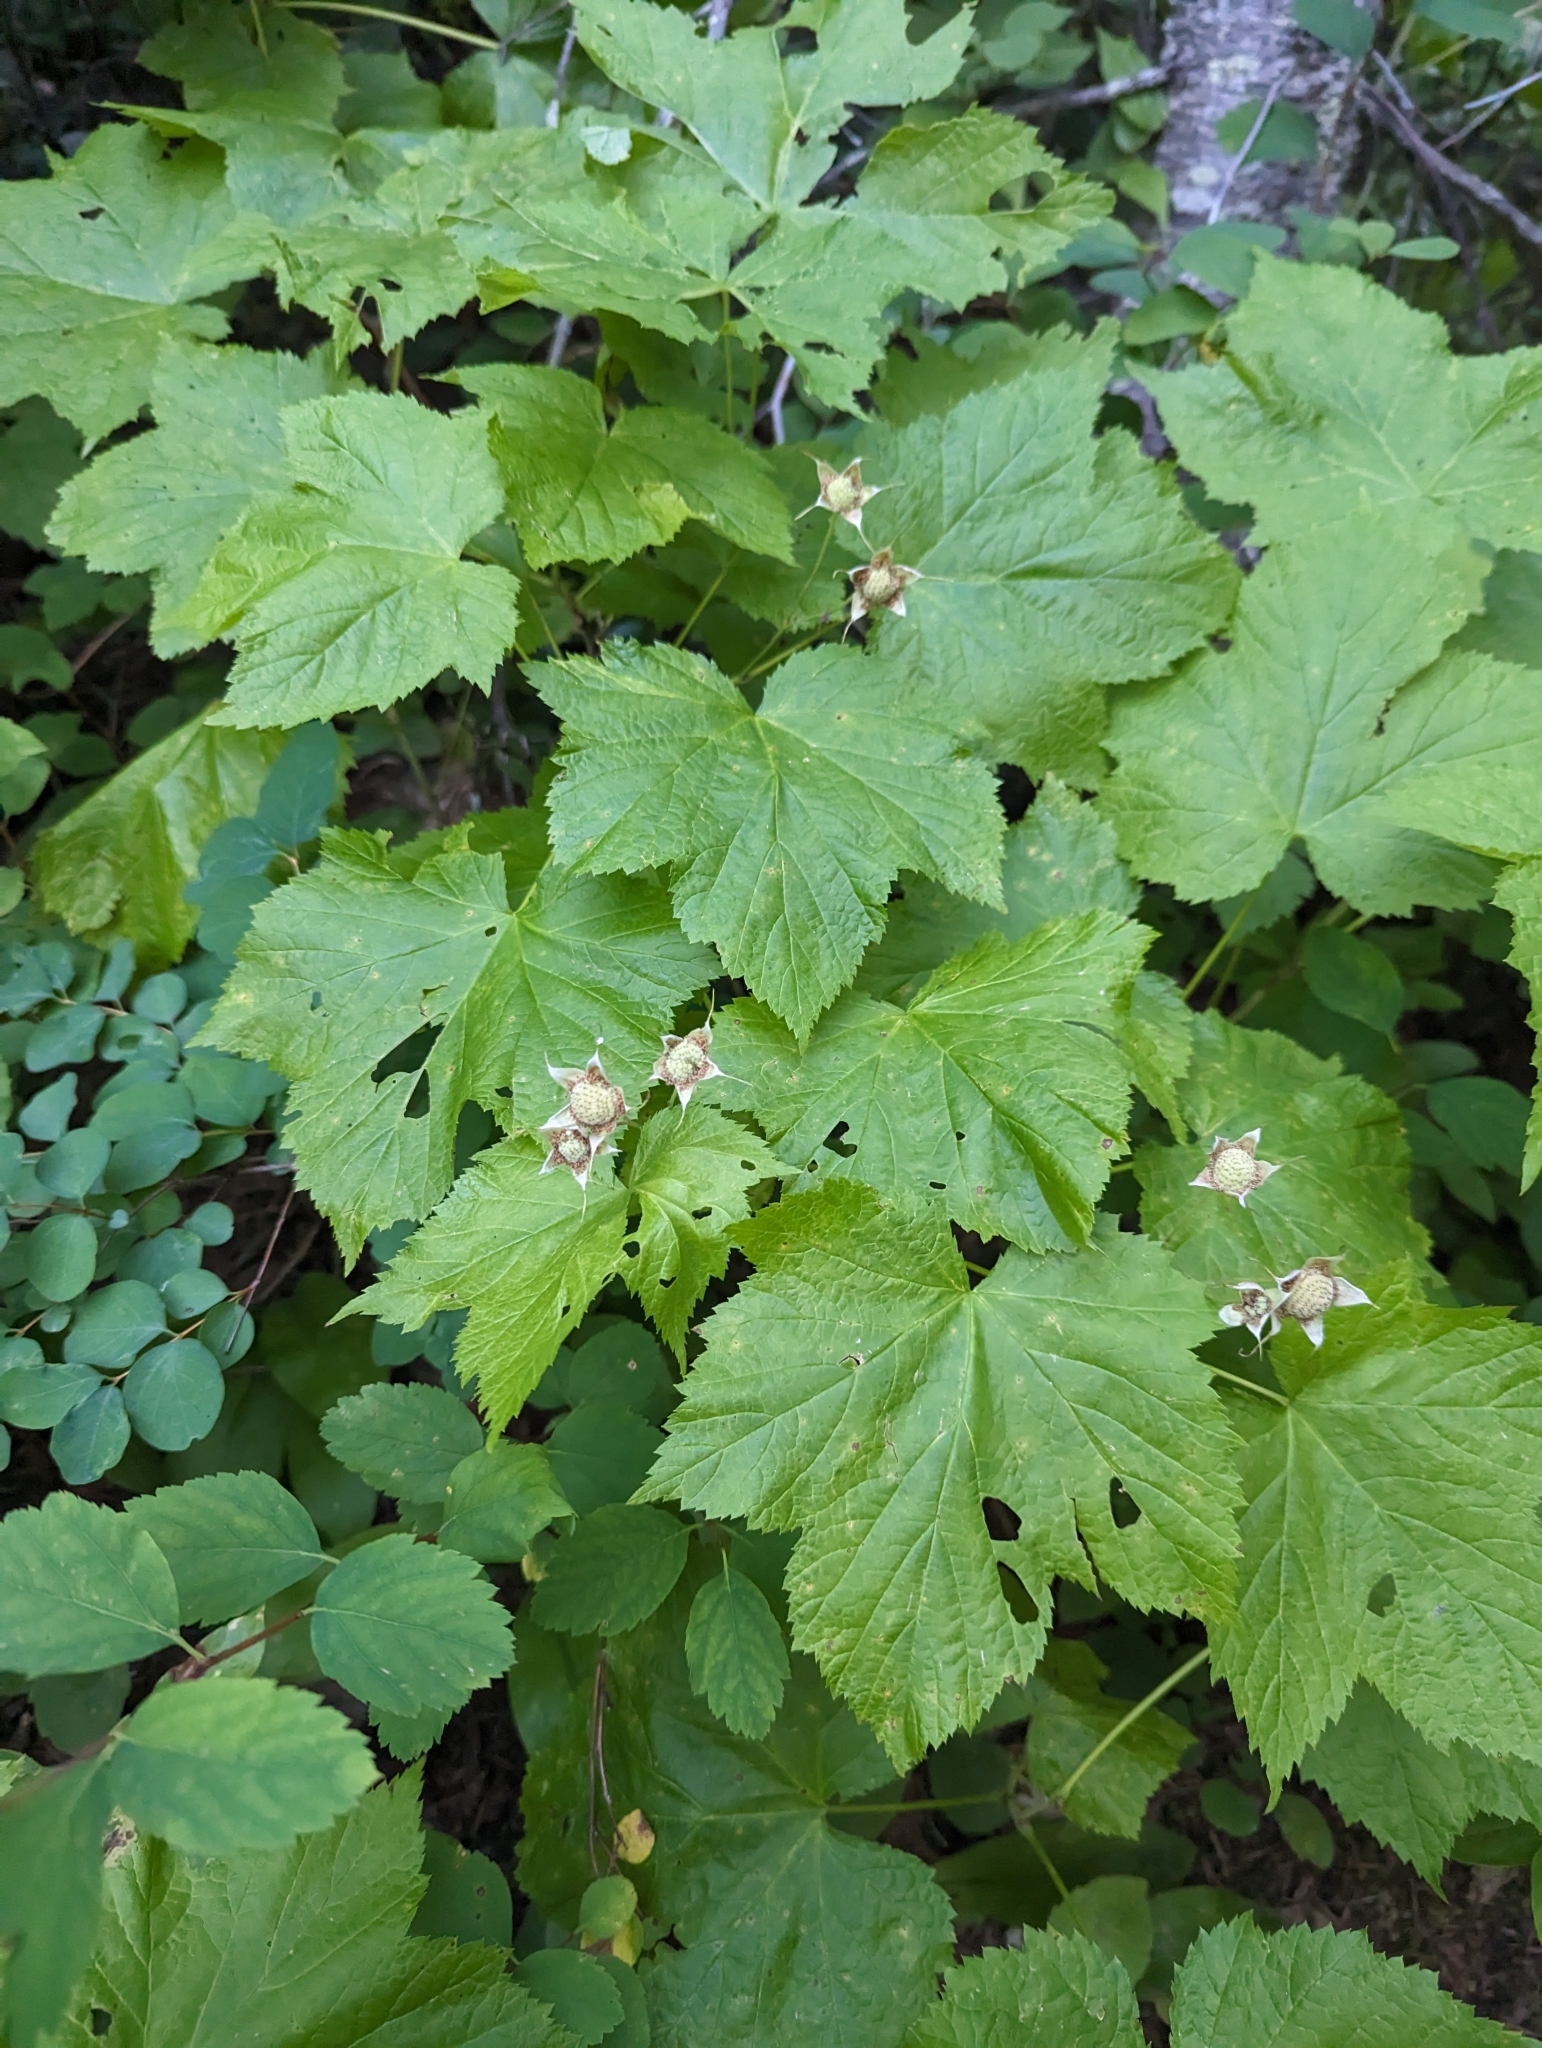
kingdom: Plantae
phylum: Tracheophyta
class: Magnoliopsida
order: Rosales
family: Rosaceae
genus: Rubus
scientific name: Rubus parviflorus
